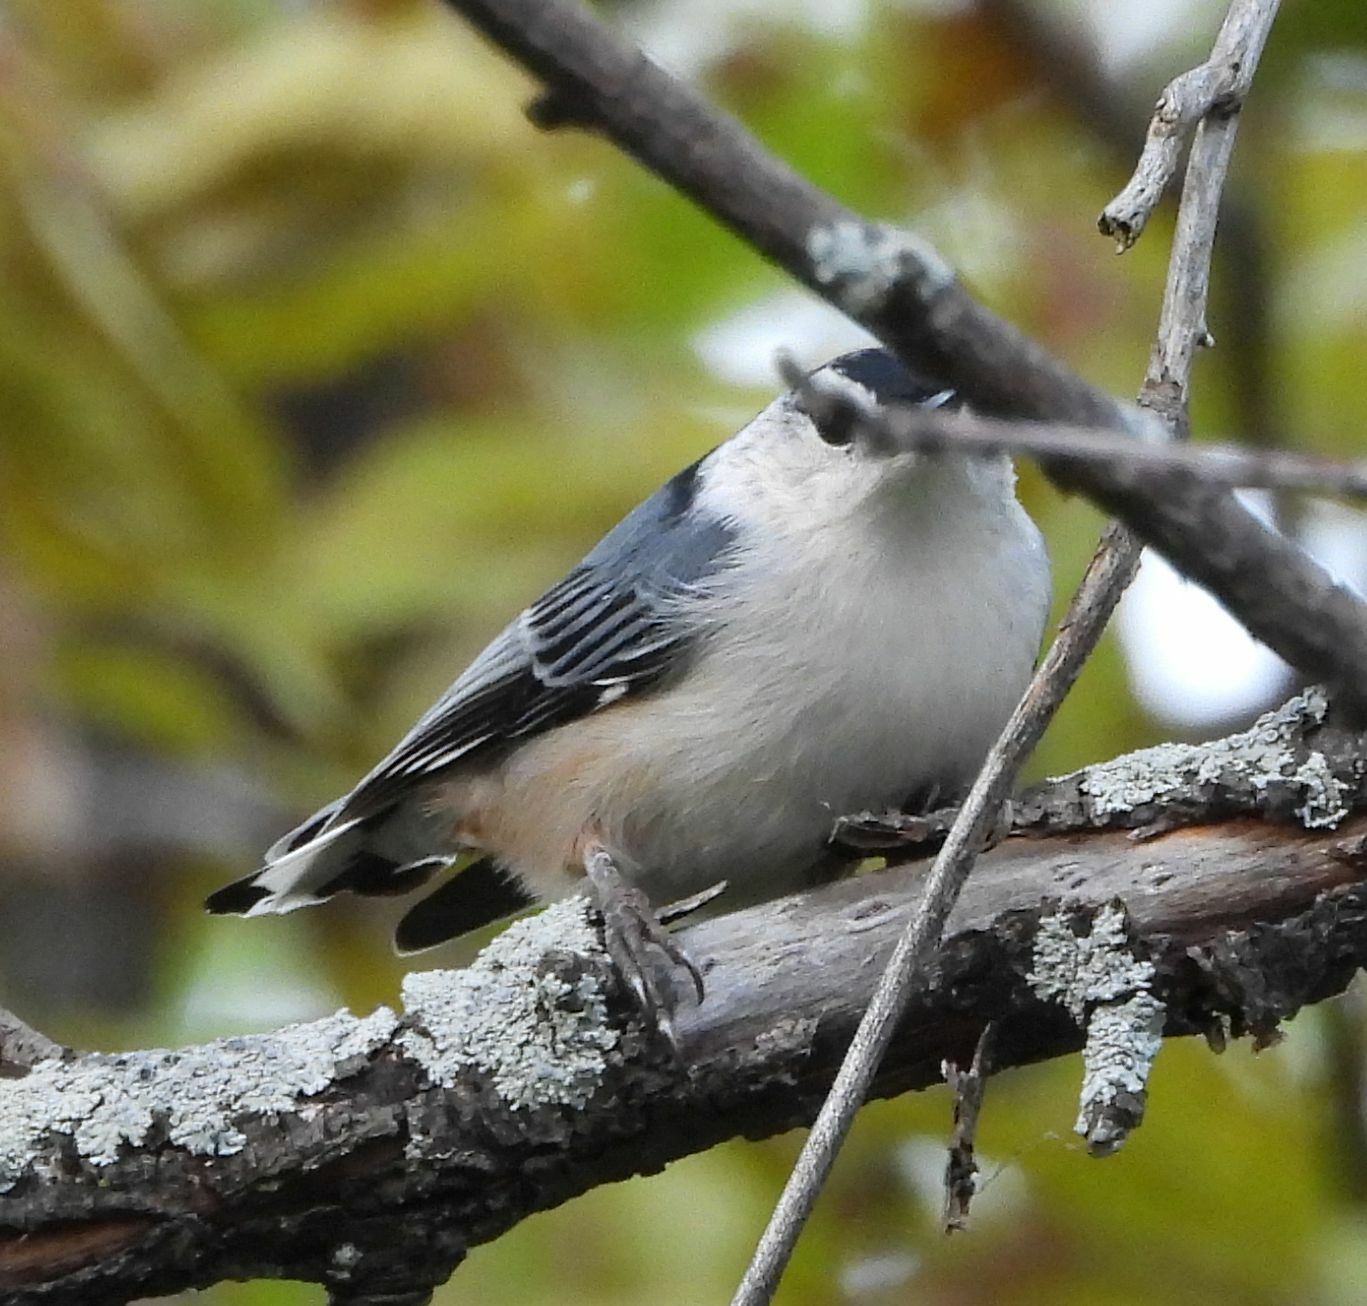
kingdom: Animalia
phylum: Chordata
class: Aves
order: Passeriformes
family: Sittidae
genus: Sitta
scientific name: Sitta carolinensis
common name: White-breasted nuthatch
